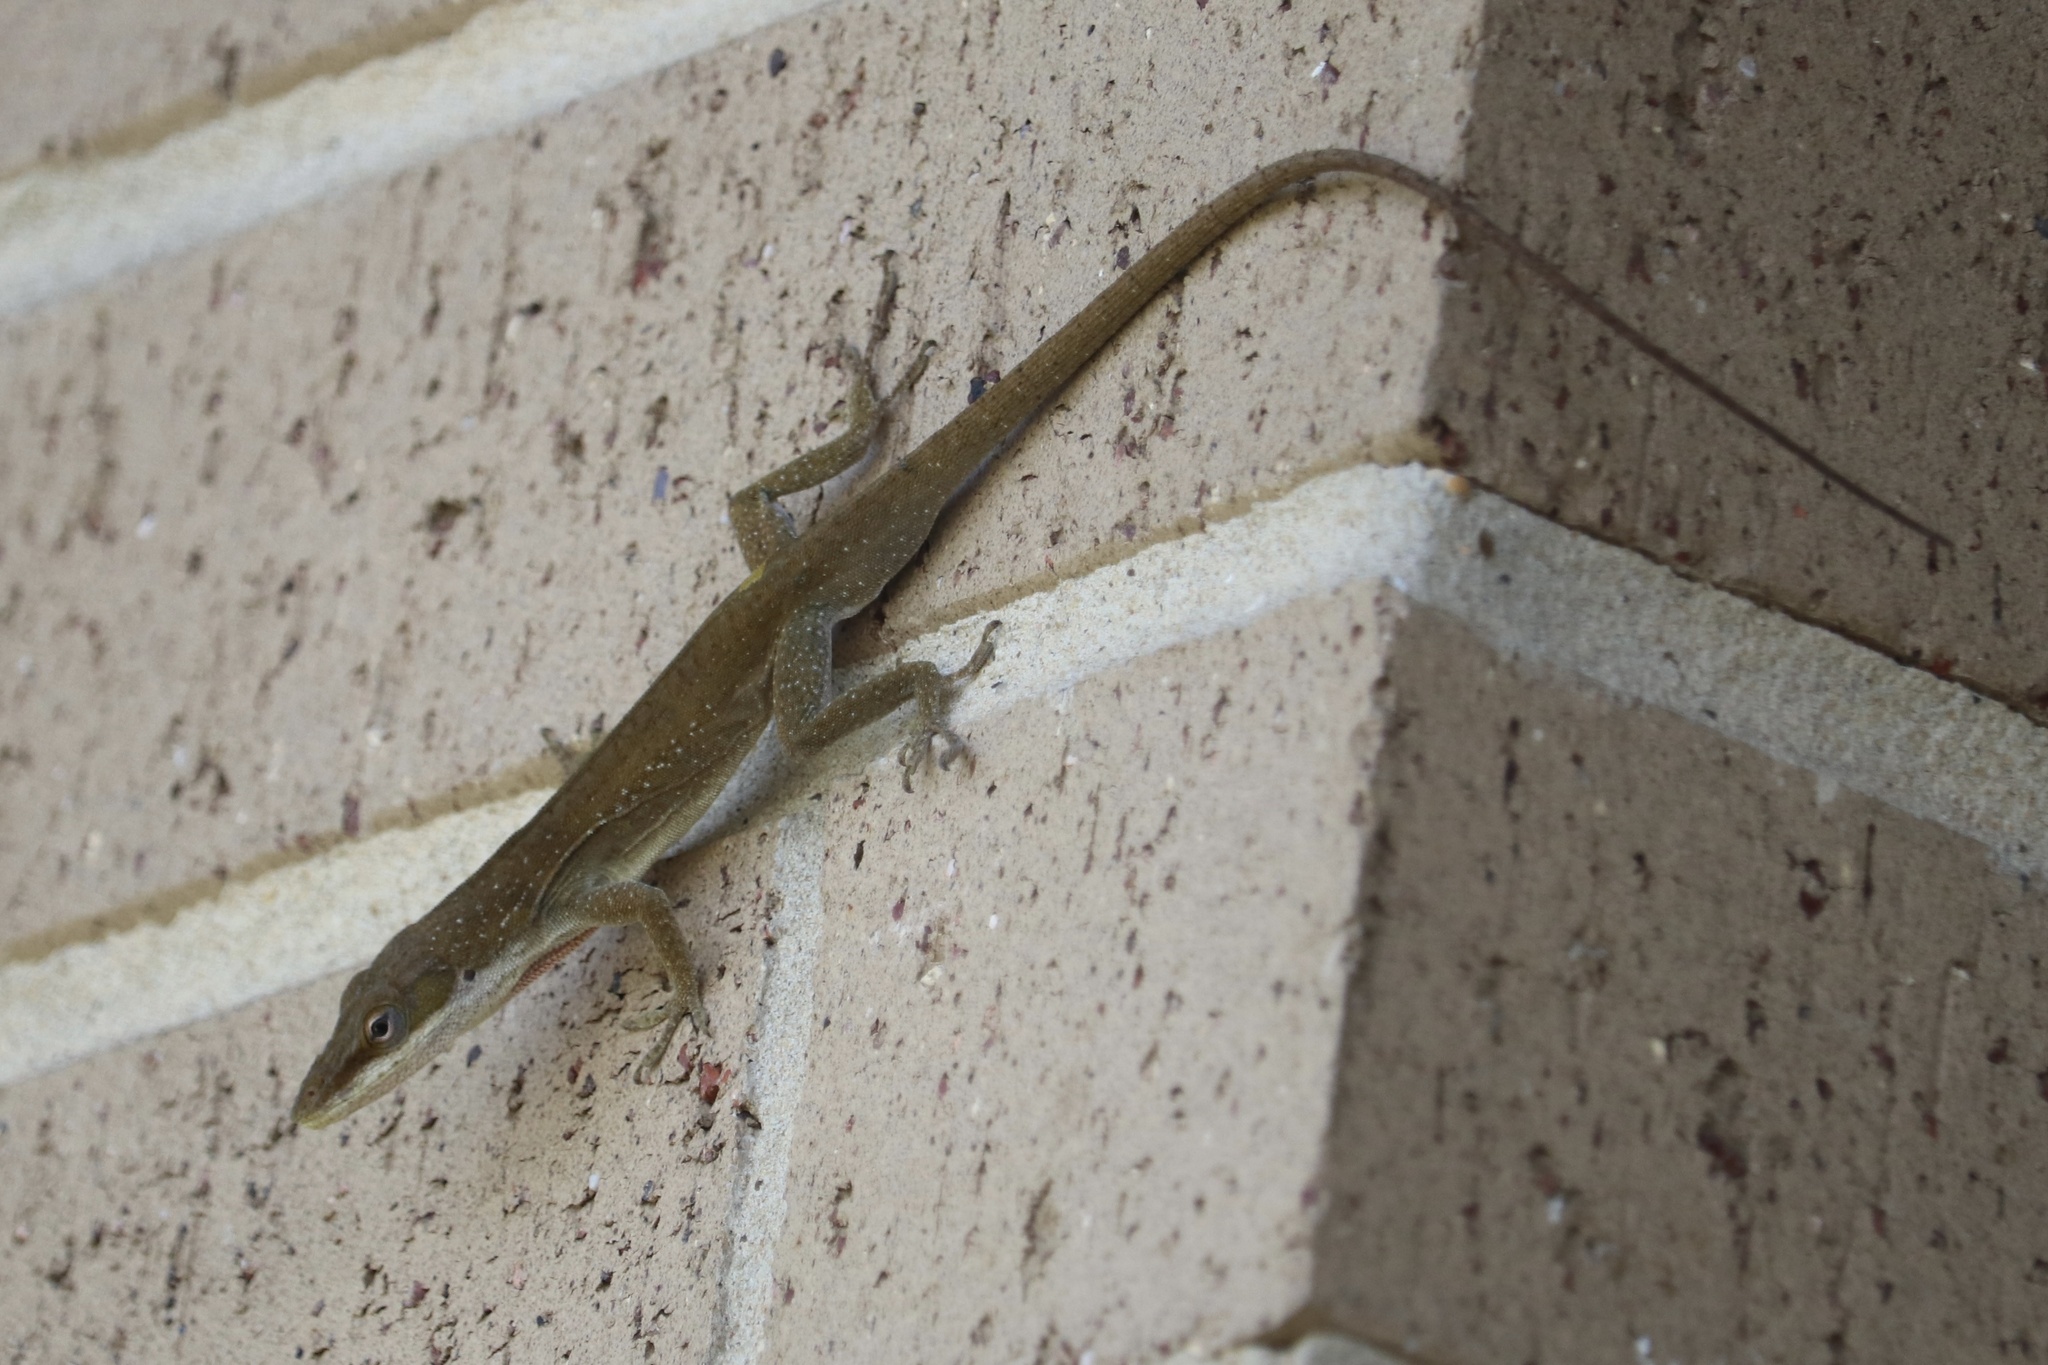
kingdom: Animalia
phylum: Chordata
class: Squamata
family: Dactyloidae
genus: Anolis
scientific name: Anolis carolinensis
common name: Green anole
